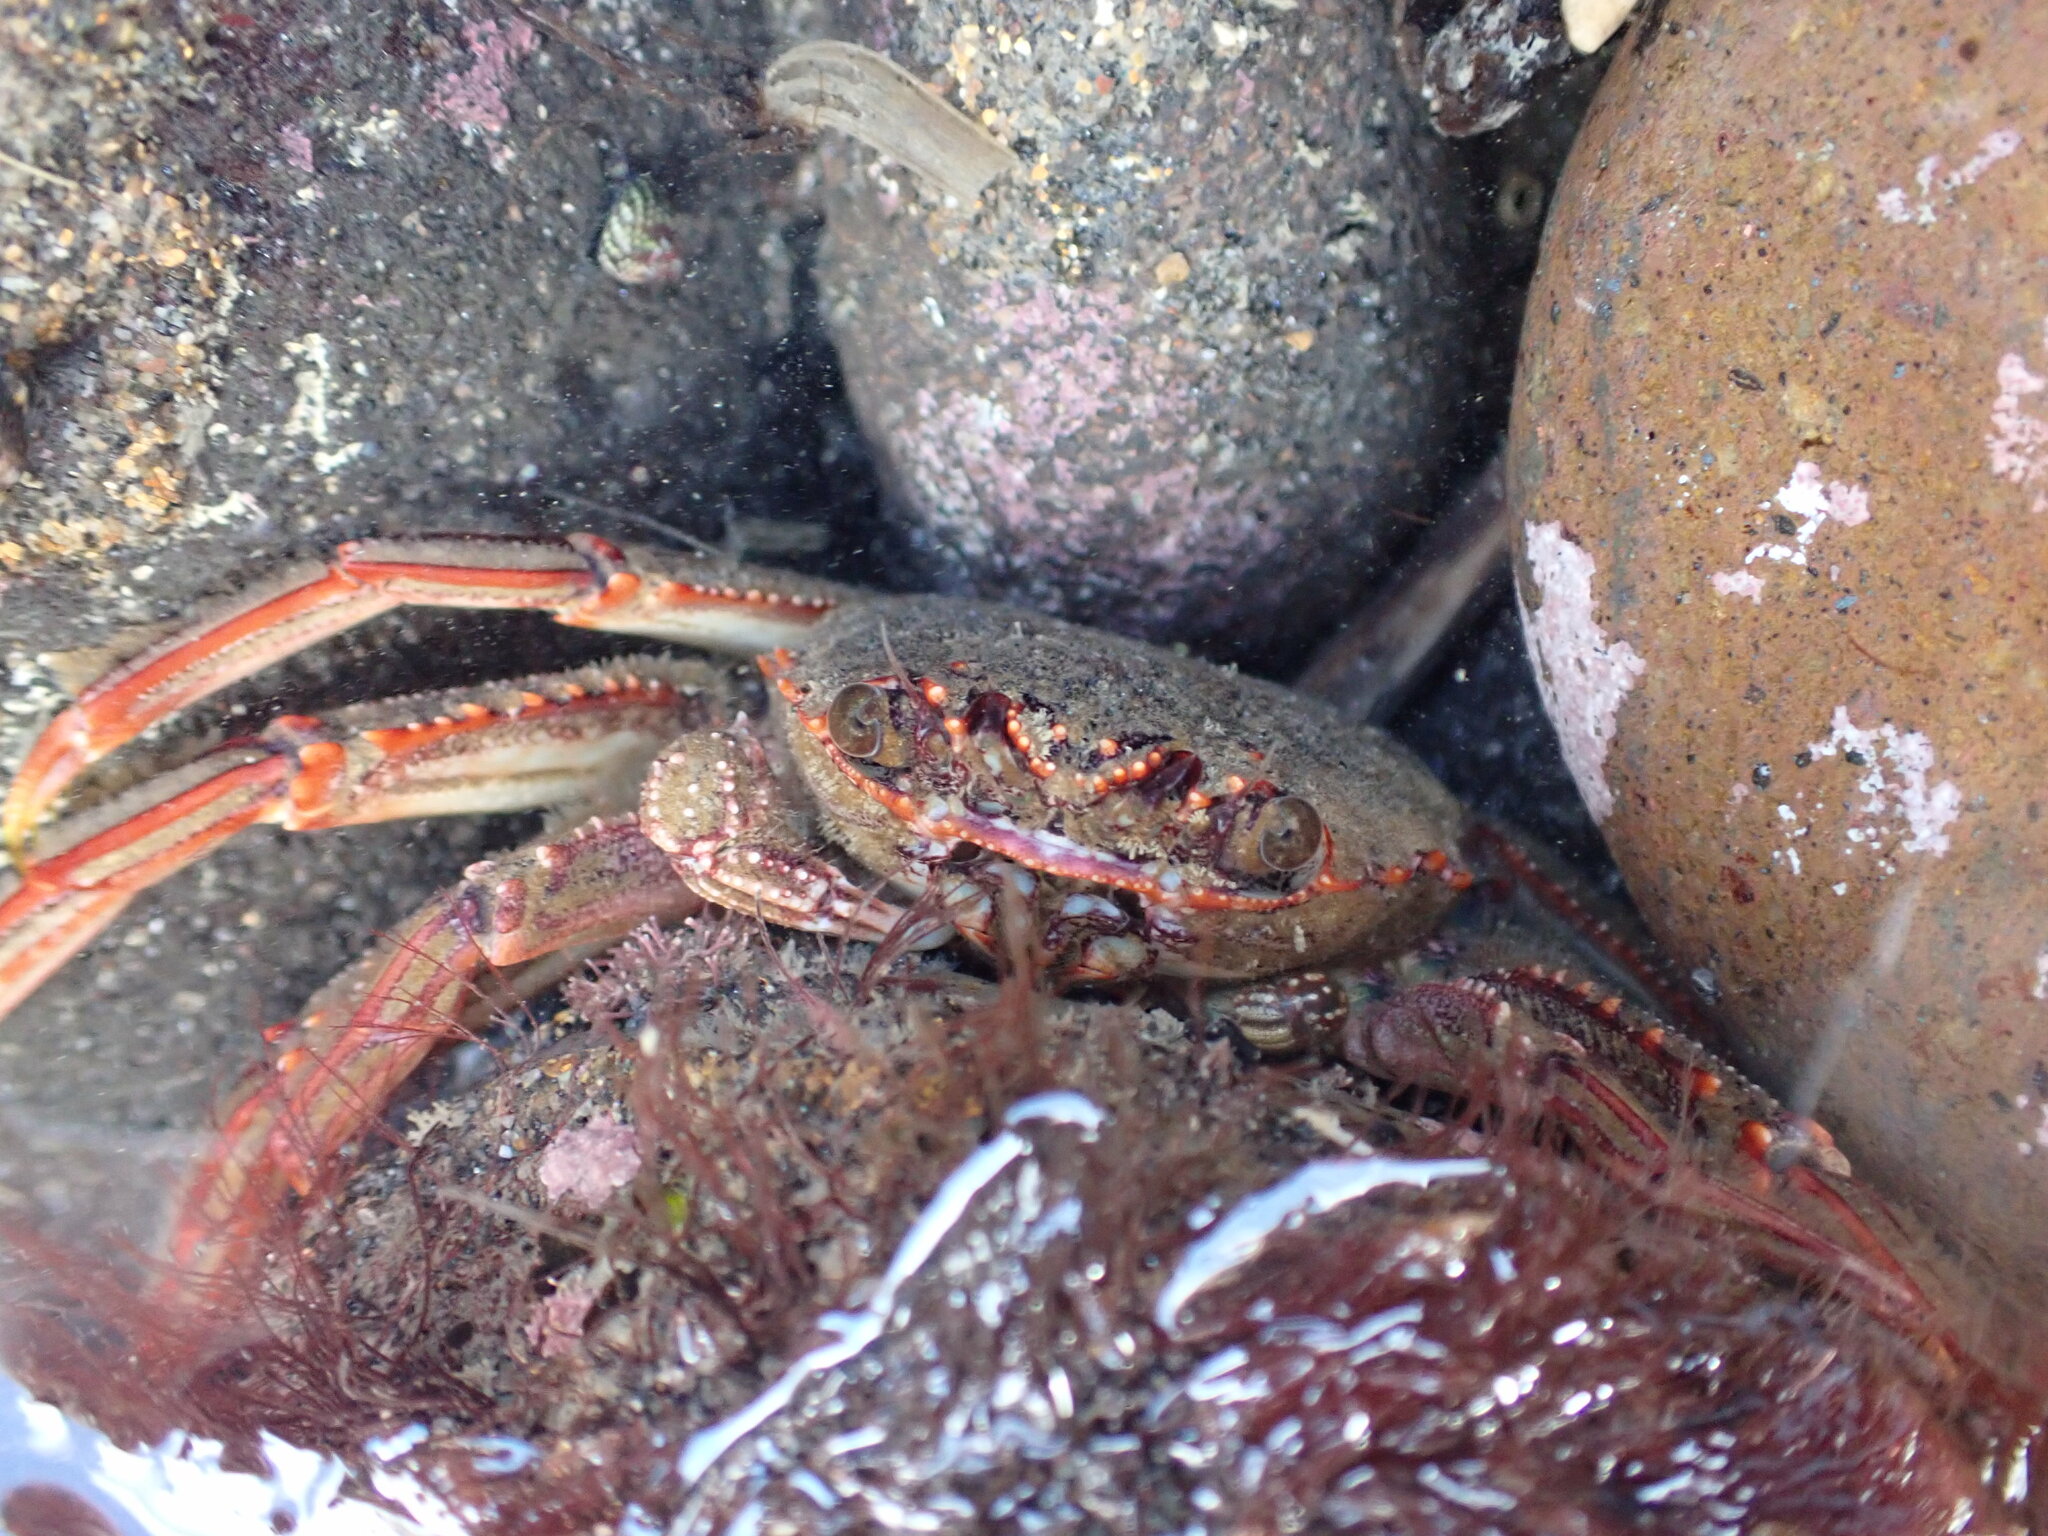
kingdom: Animalia
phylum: Arthropoda
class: Malacostraca
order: Decapoda
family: Plagusiidae
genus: Guinusia
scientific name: Guinusia chabrus
